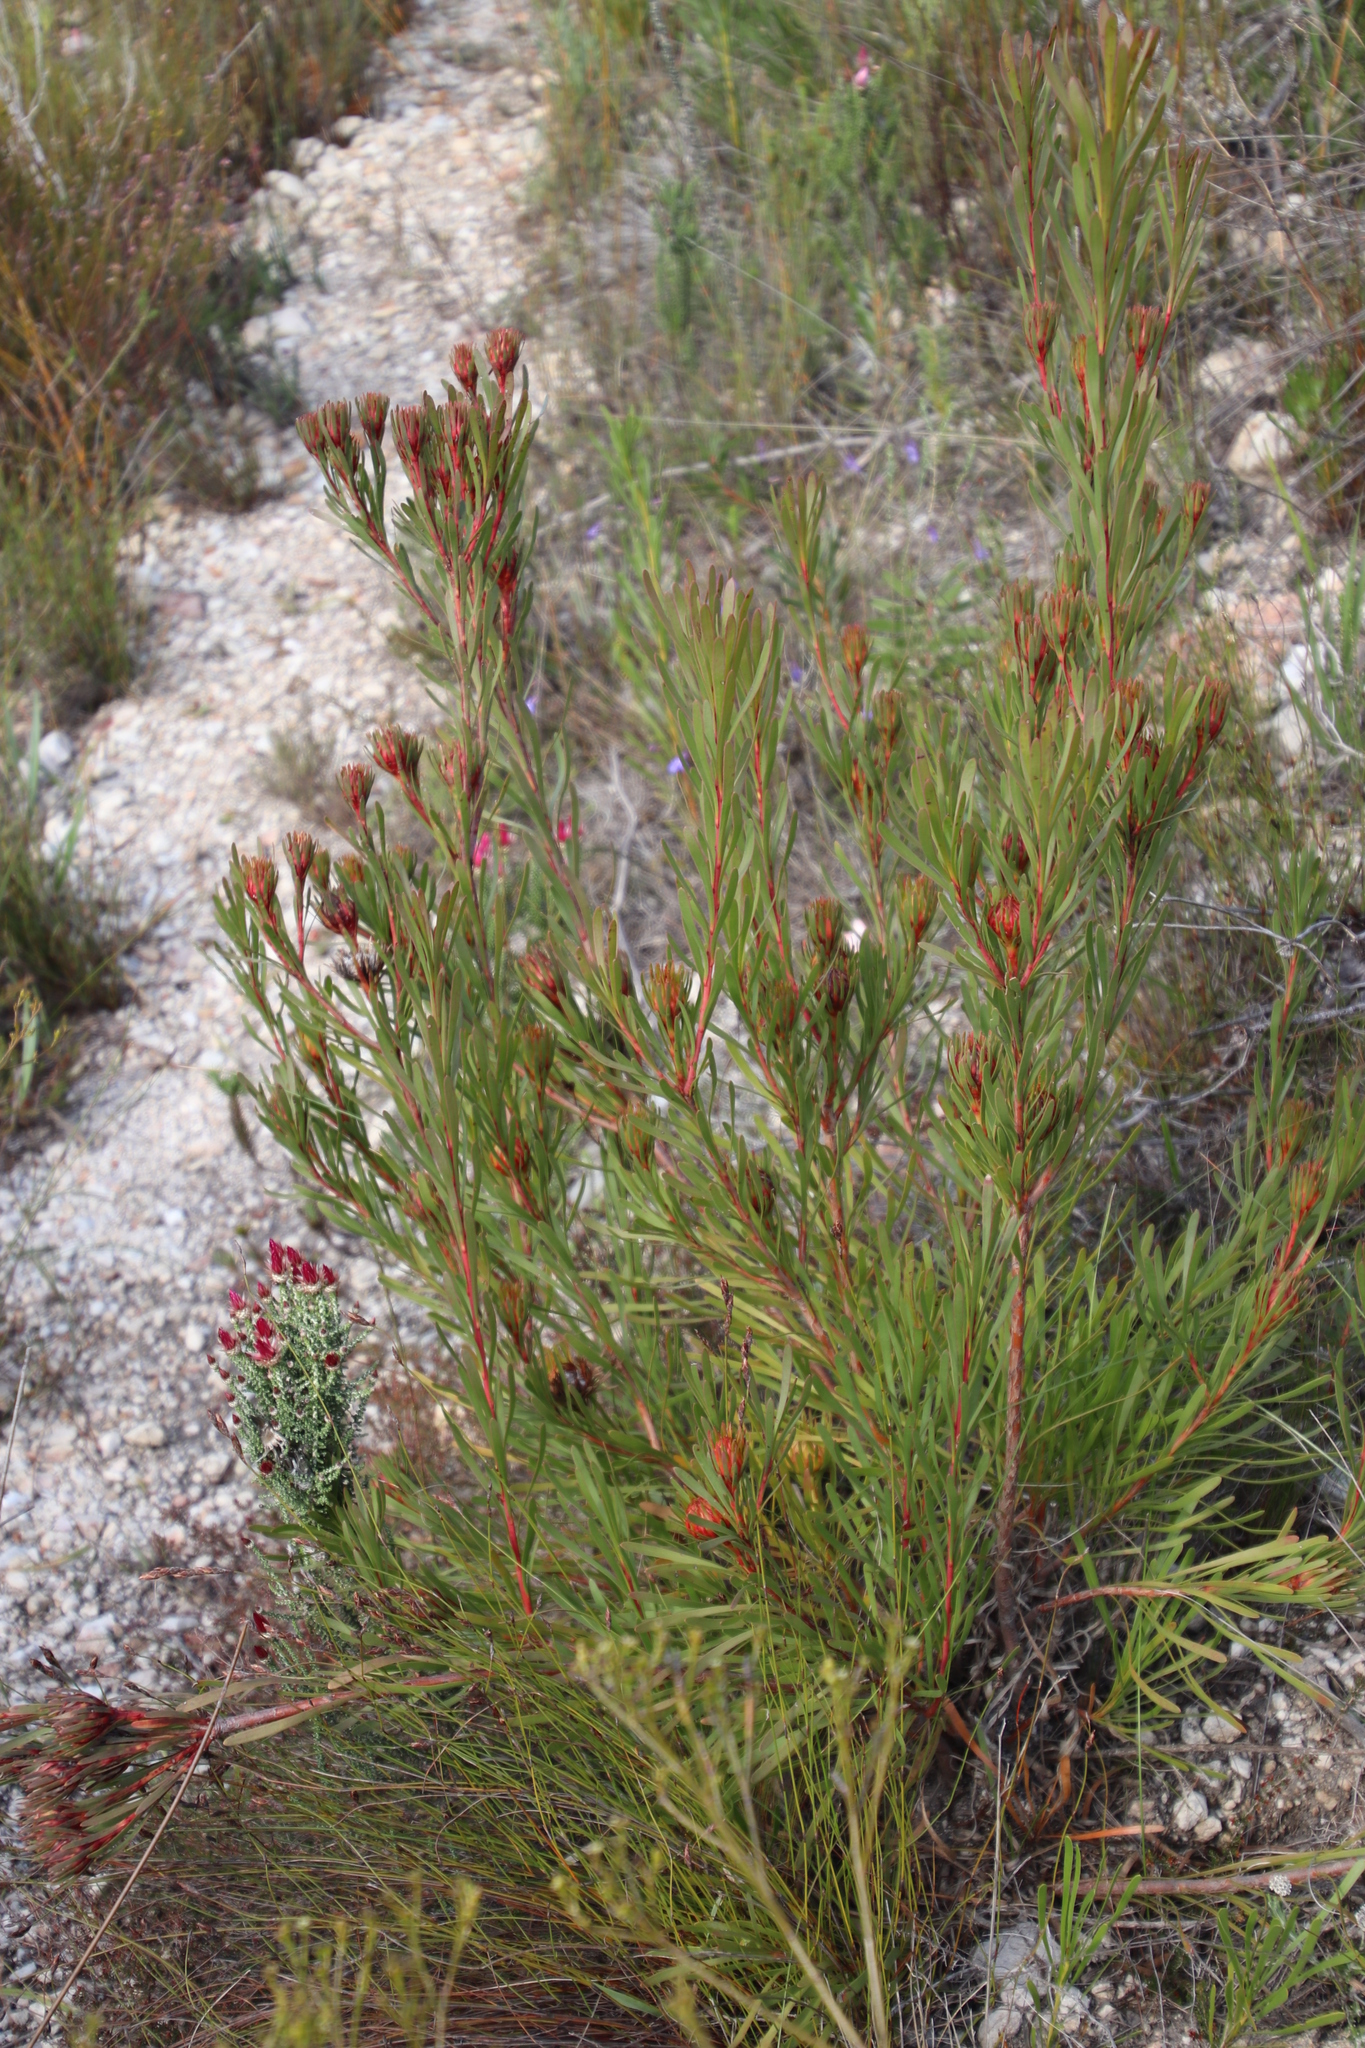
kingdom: Plantae
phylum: Tracheophyta
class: Magnoliopsida
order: Proteales
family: Proteaceae
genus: Aulax
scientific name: Aulax umbellata
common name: Broad-leaf featherbush
